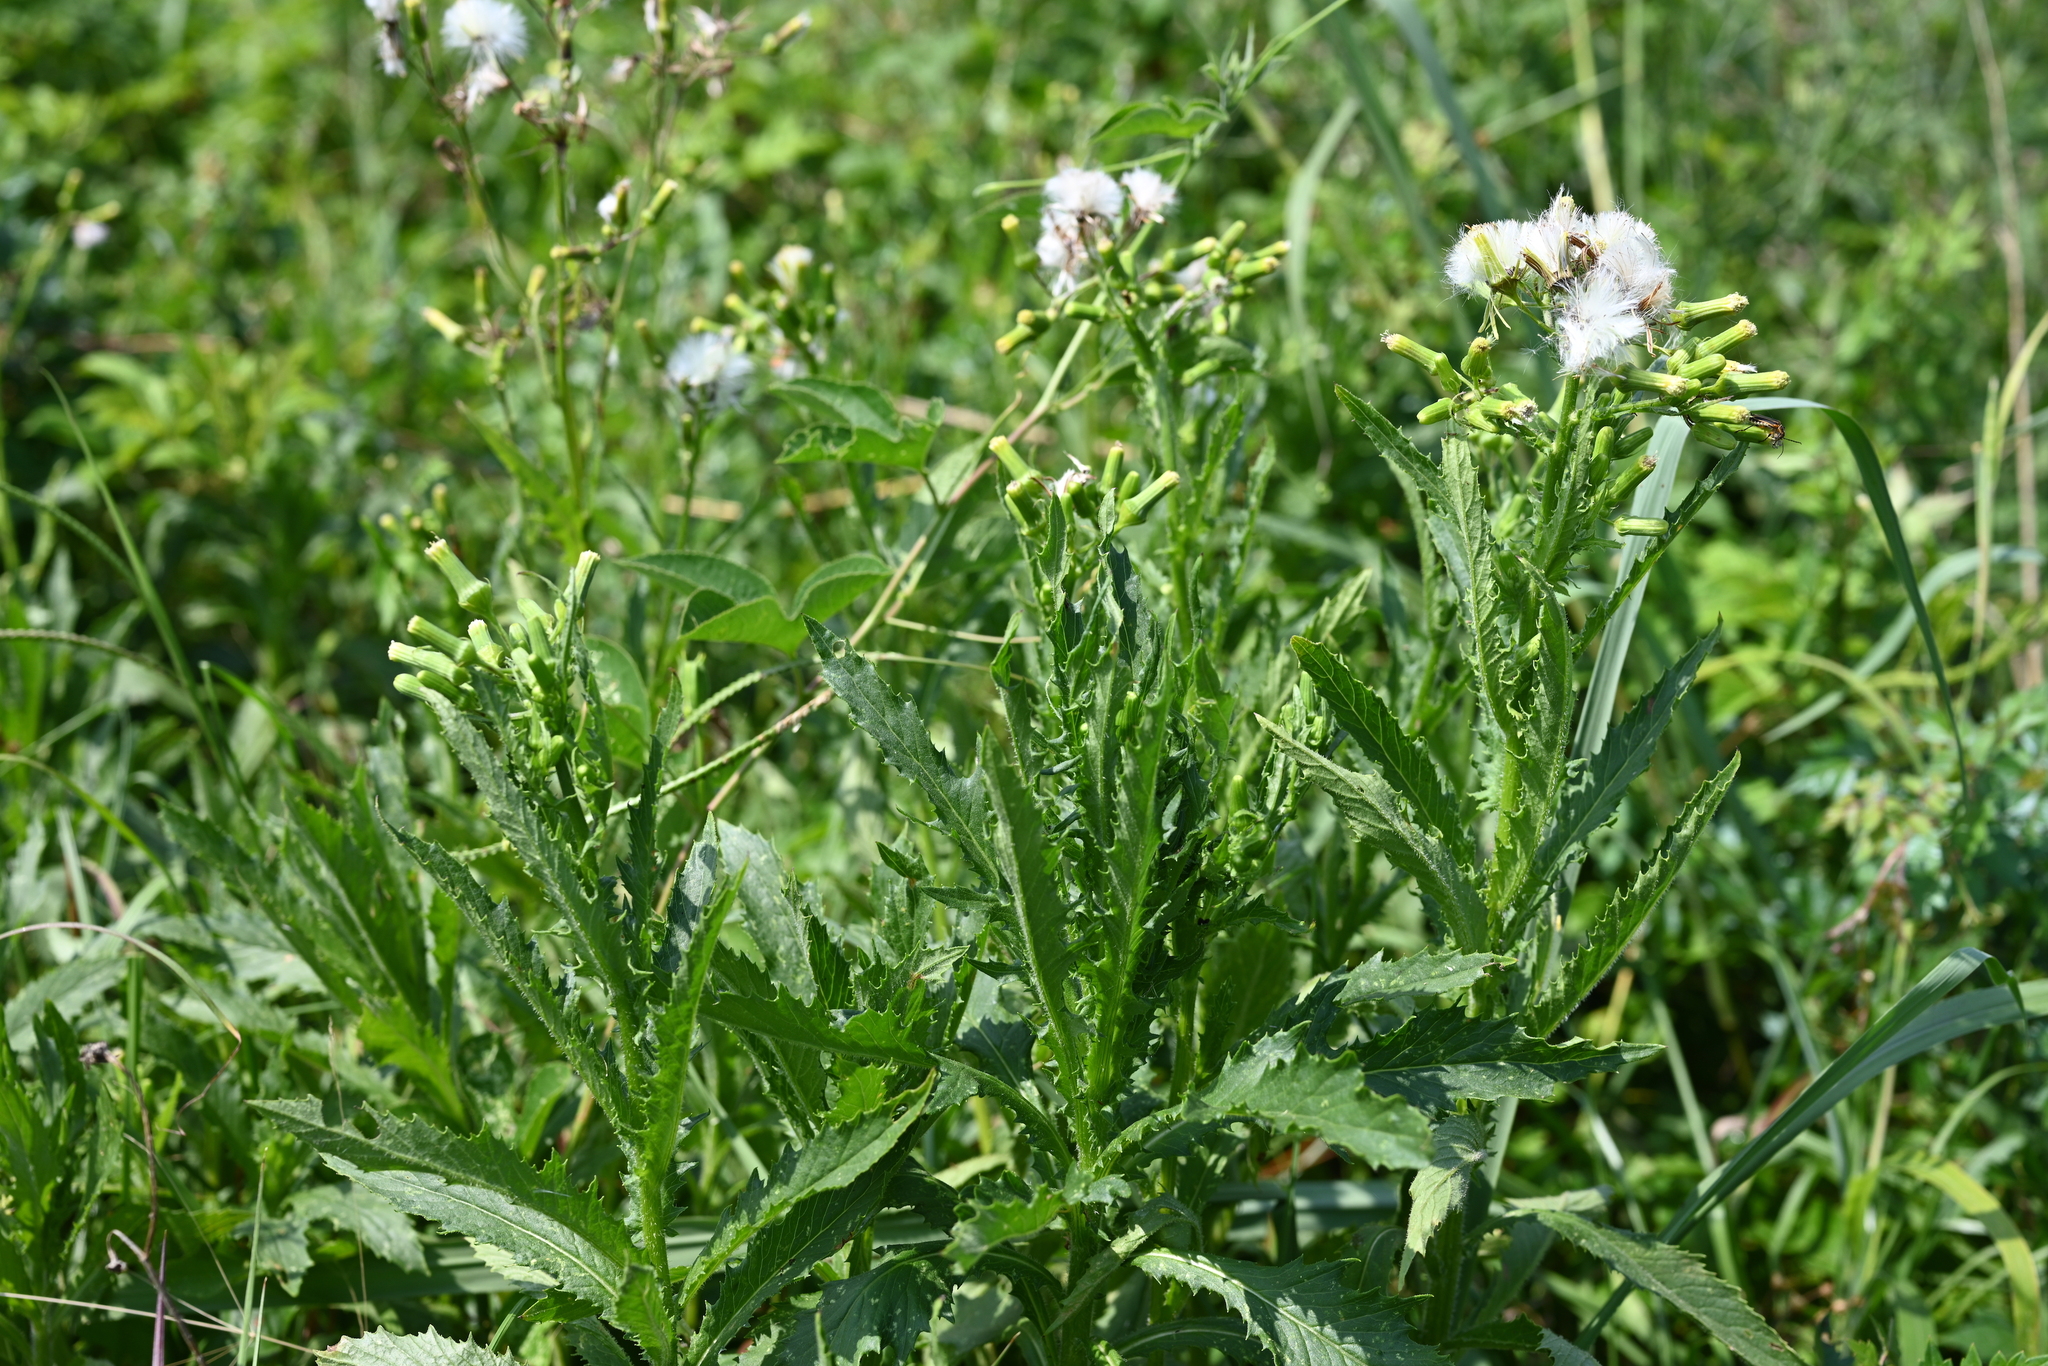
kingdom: Plantae
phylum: Tracheophyta
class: Magnoliopsida
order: Asterales
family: Asteraceae
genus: Erechtites
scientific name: Erechtites hieraciifolius
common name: American burnweed
